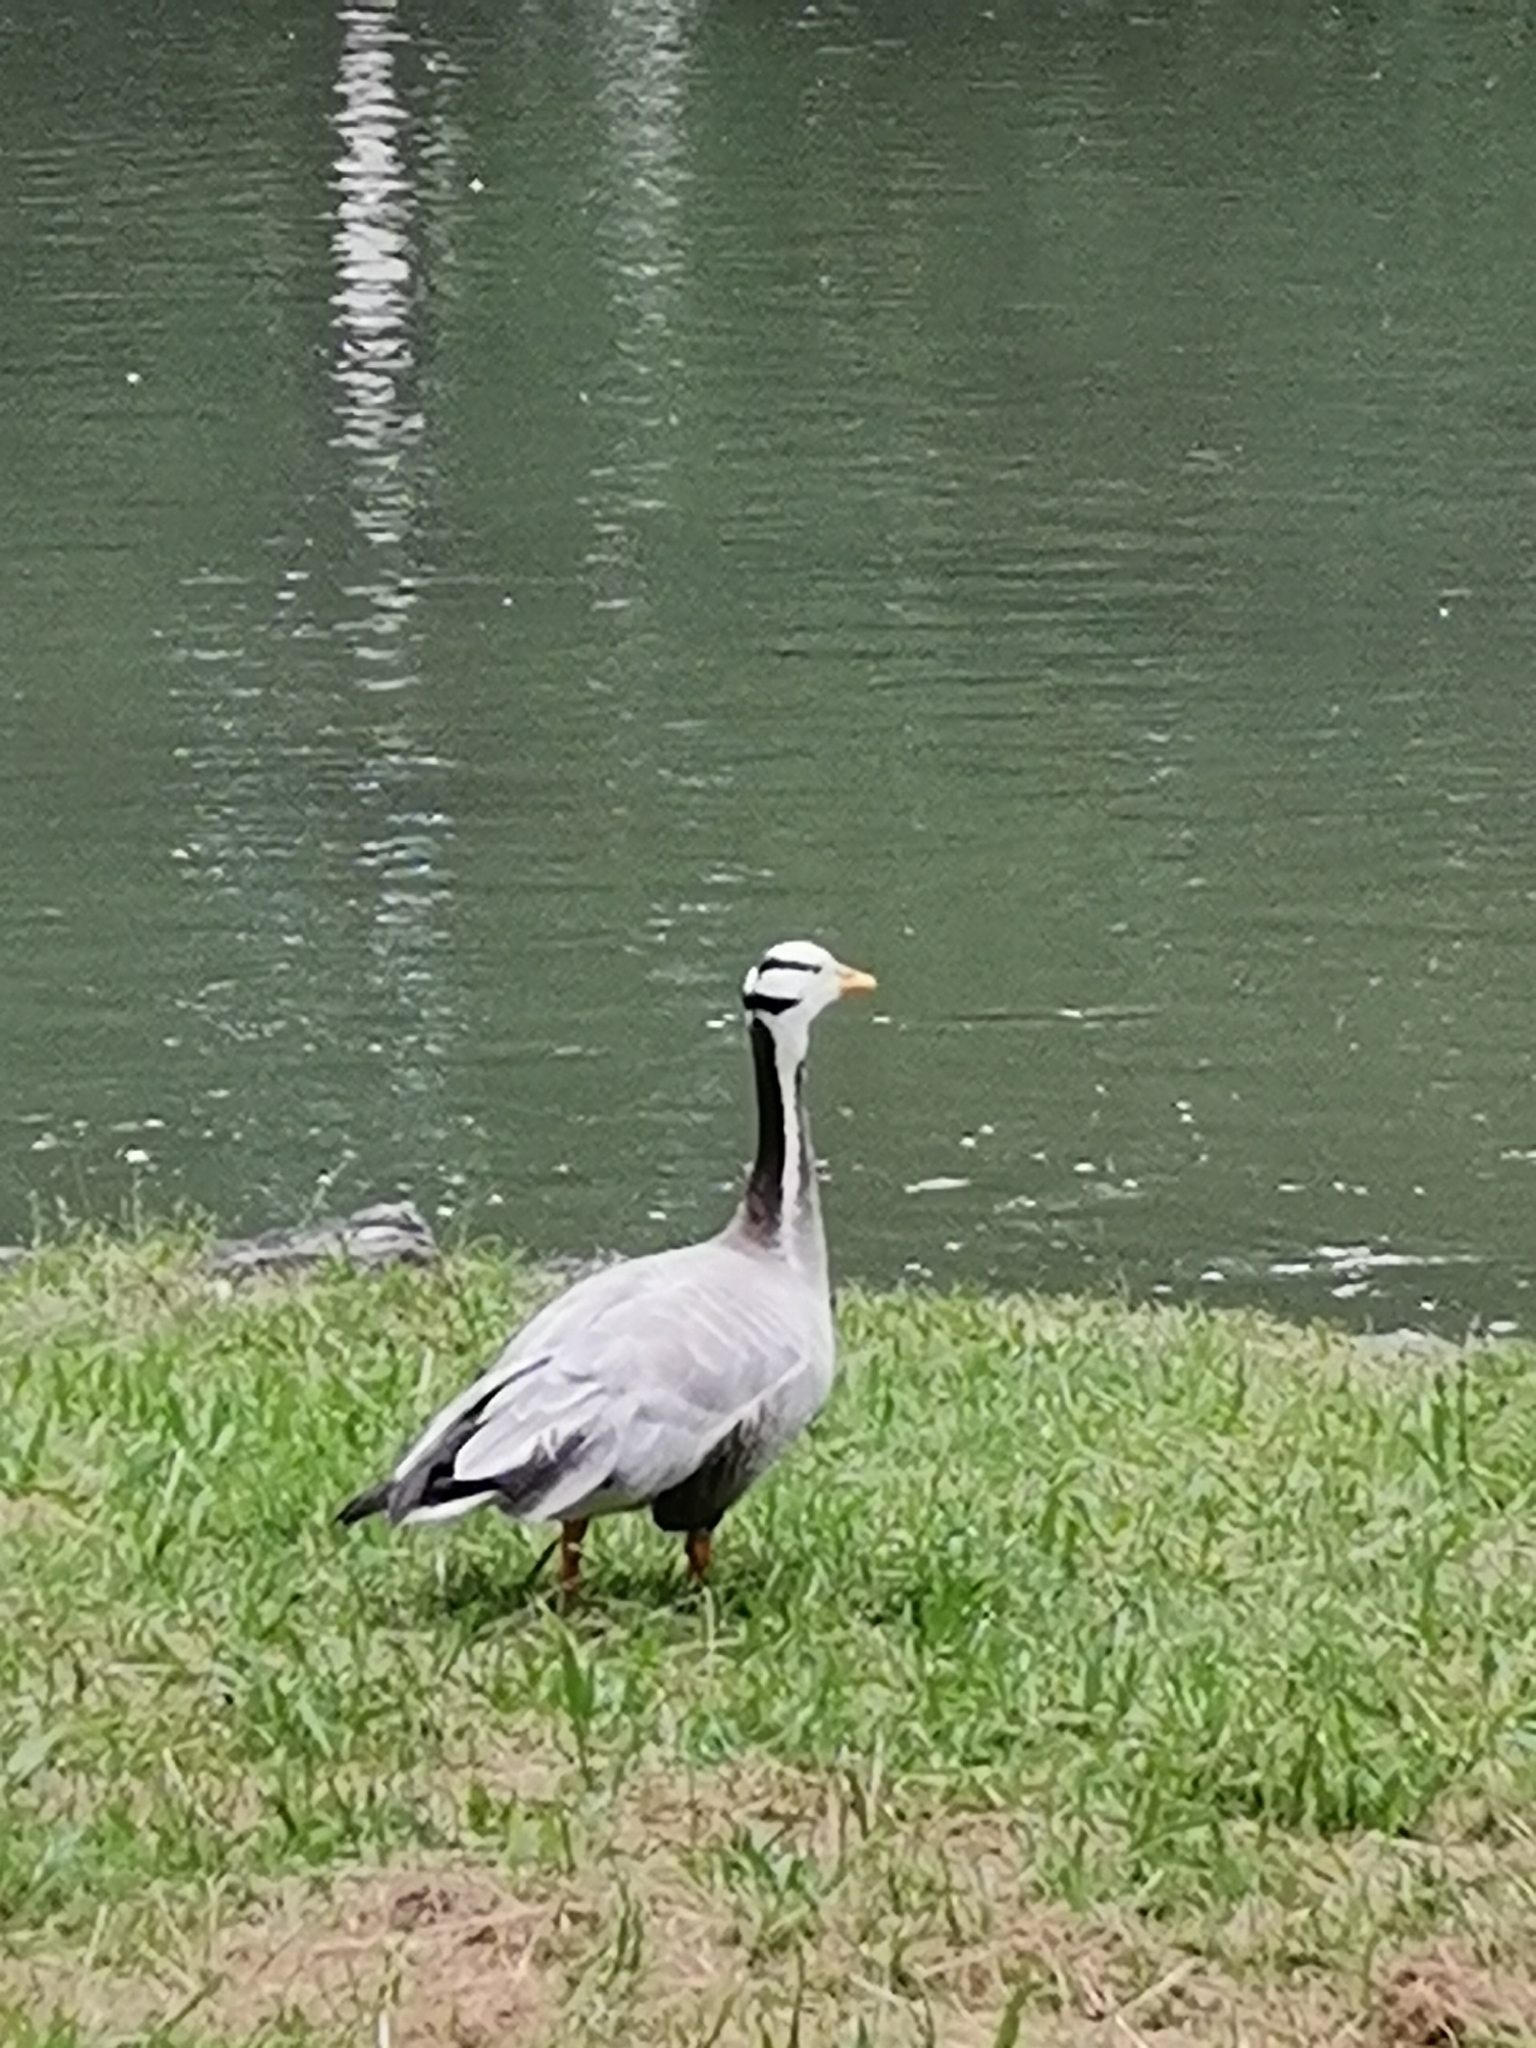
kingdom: Animalia
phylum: Chordata
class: Aves
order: Anseriformes
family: Anatidae
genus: Anser
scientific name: Anser indicus
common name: Bar-headed goose
